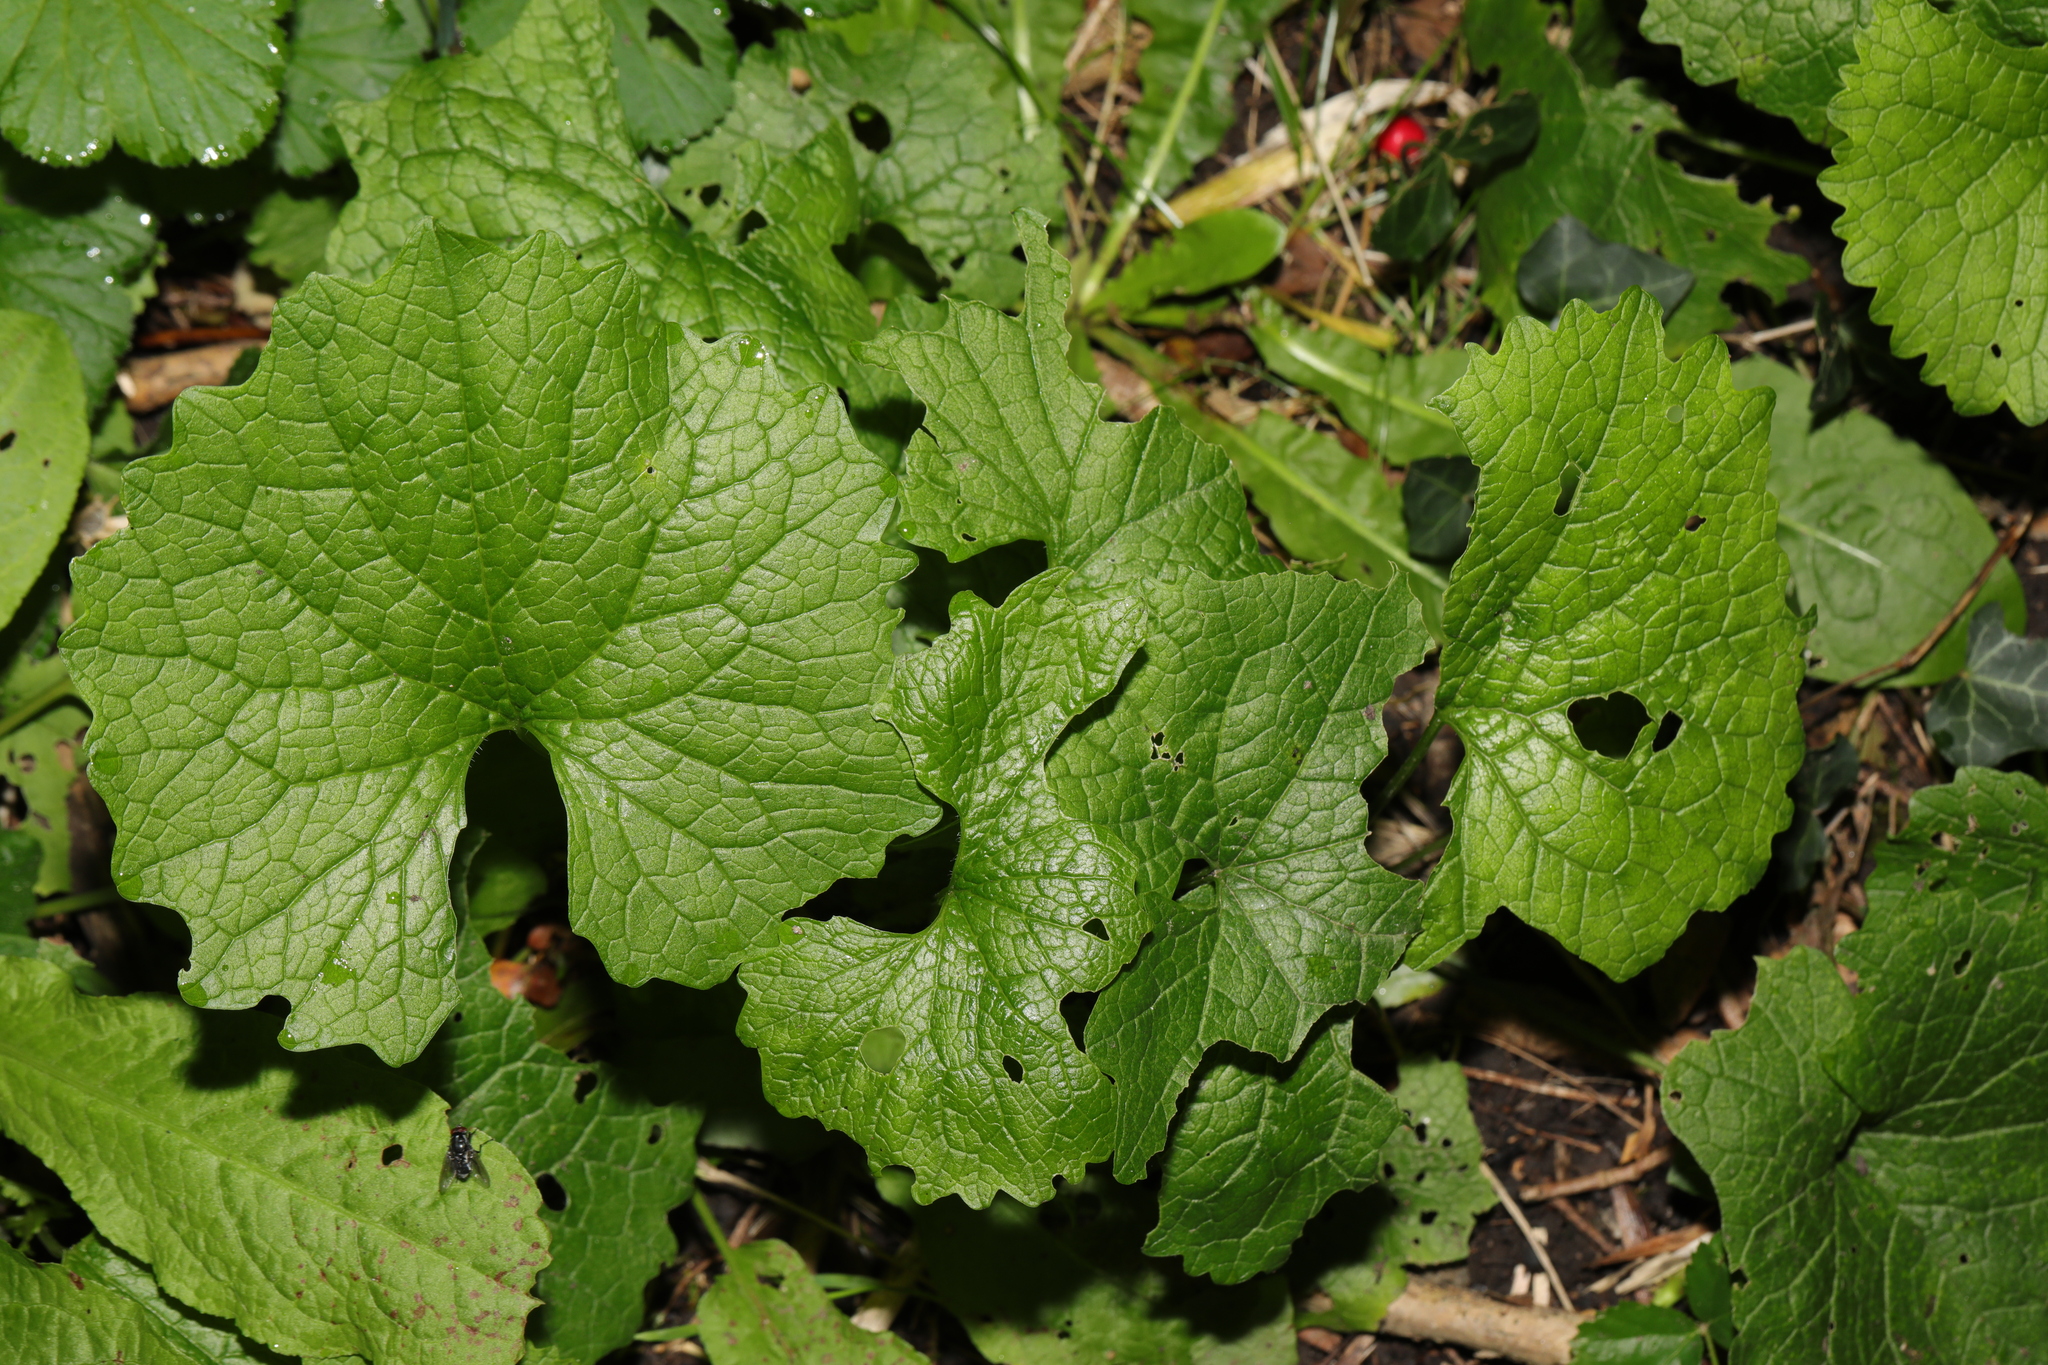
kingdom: Plantae
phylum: Tracheophyta
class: Magnoliopsida
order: Brassicales
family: Brassicaceae
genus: Alliaria
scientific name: Alliaria petiolata
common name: Garlic mustard
